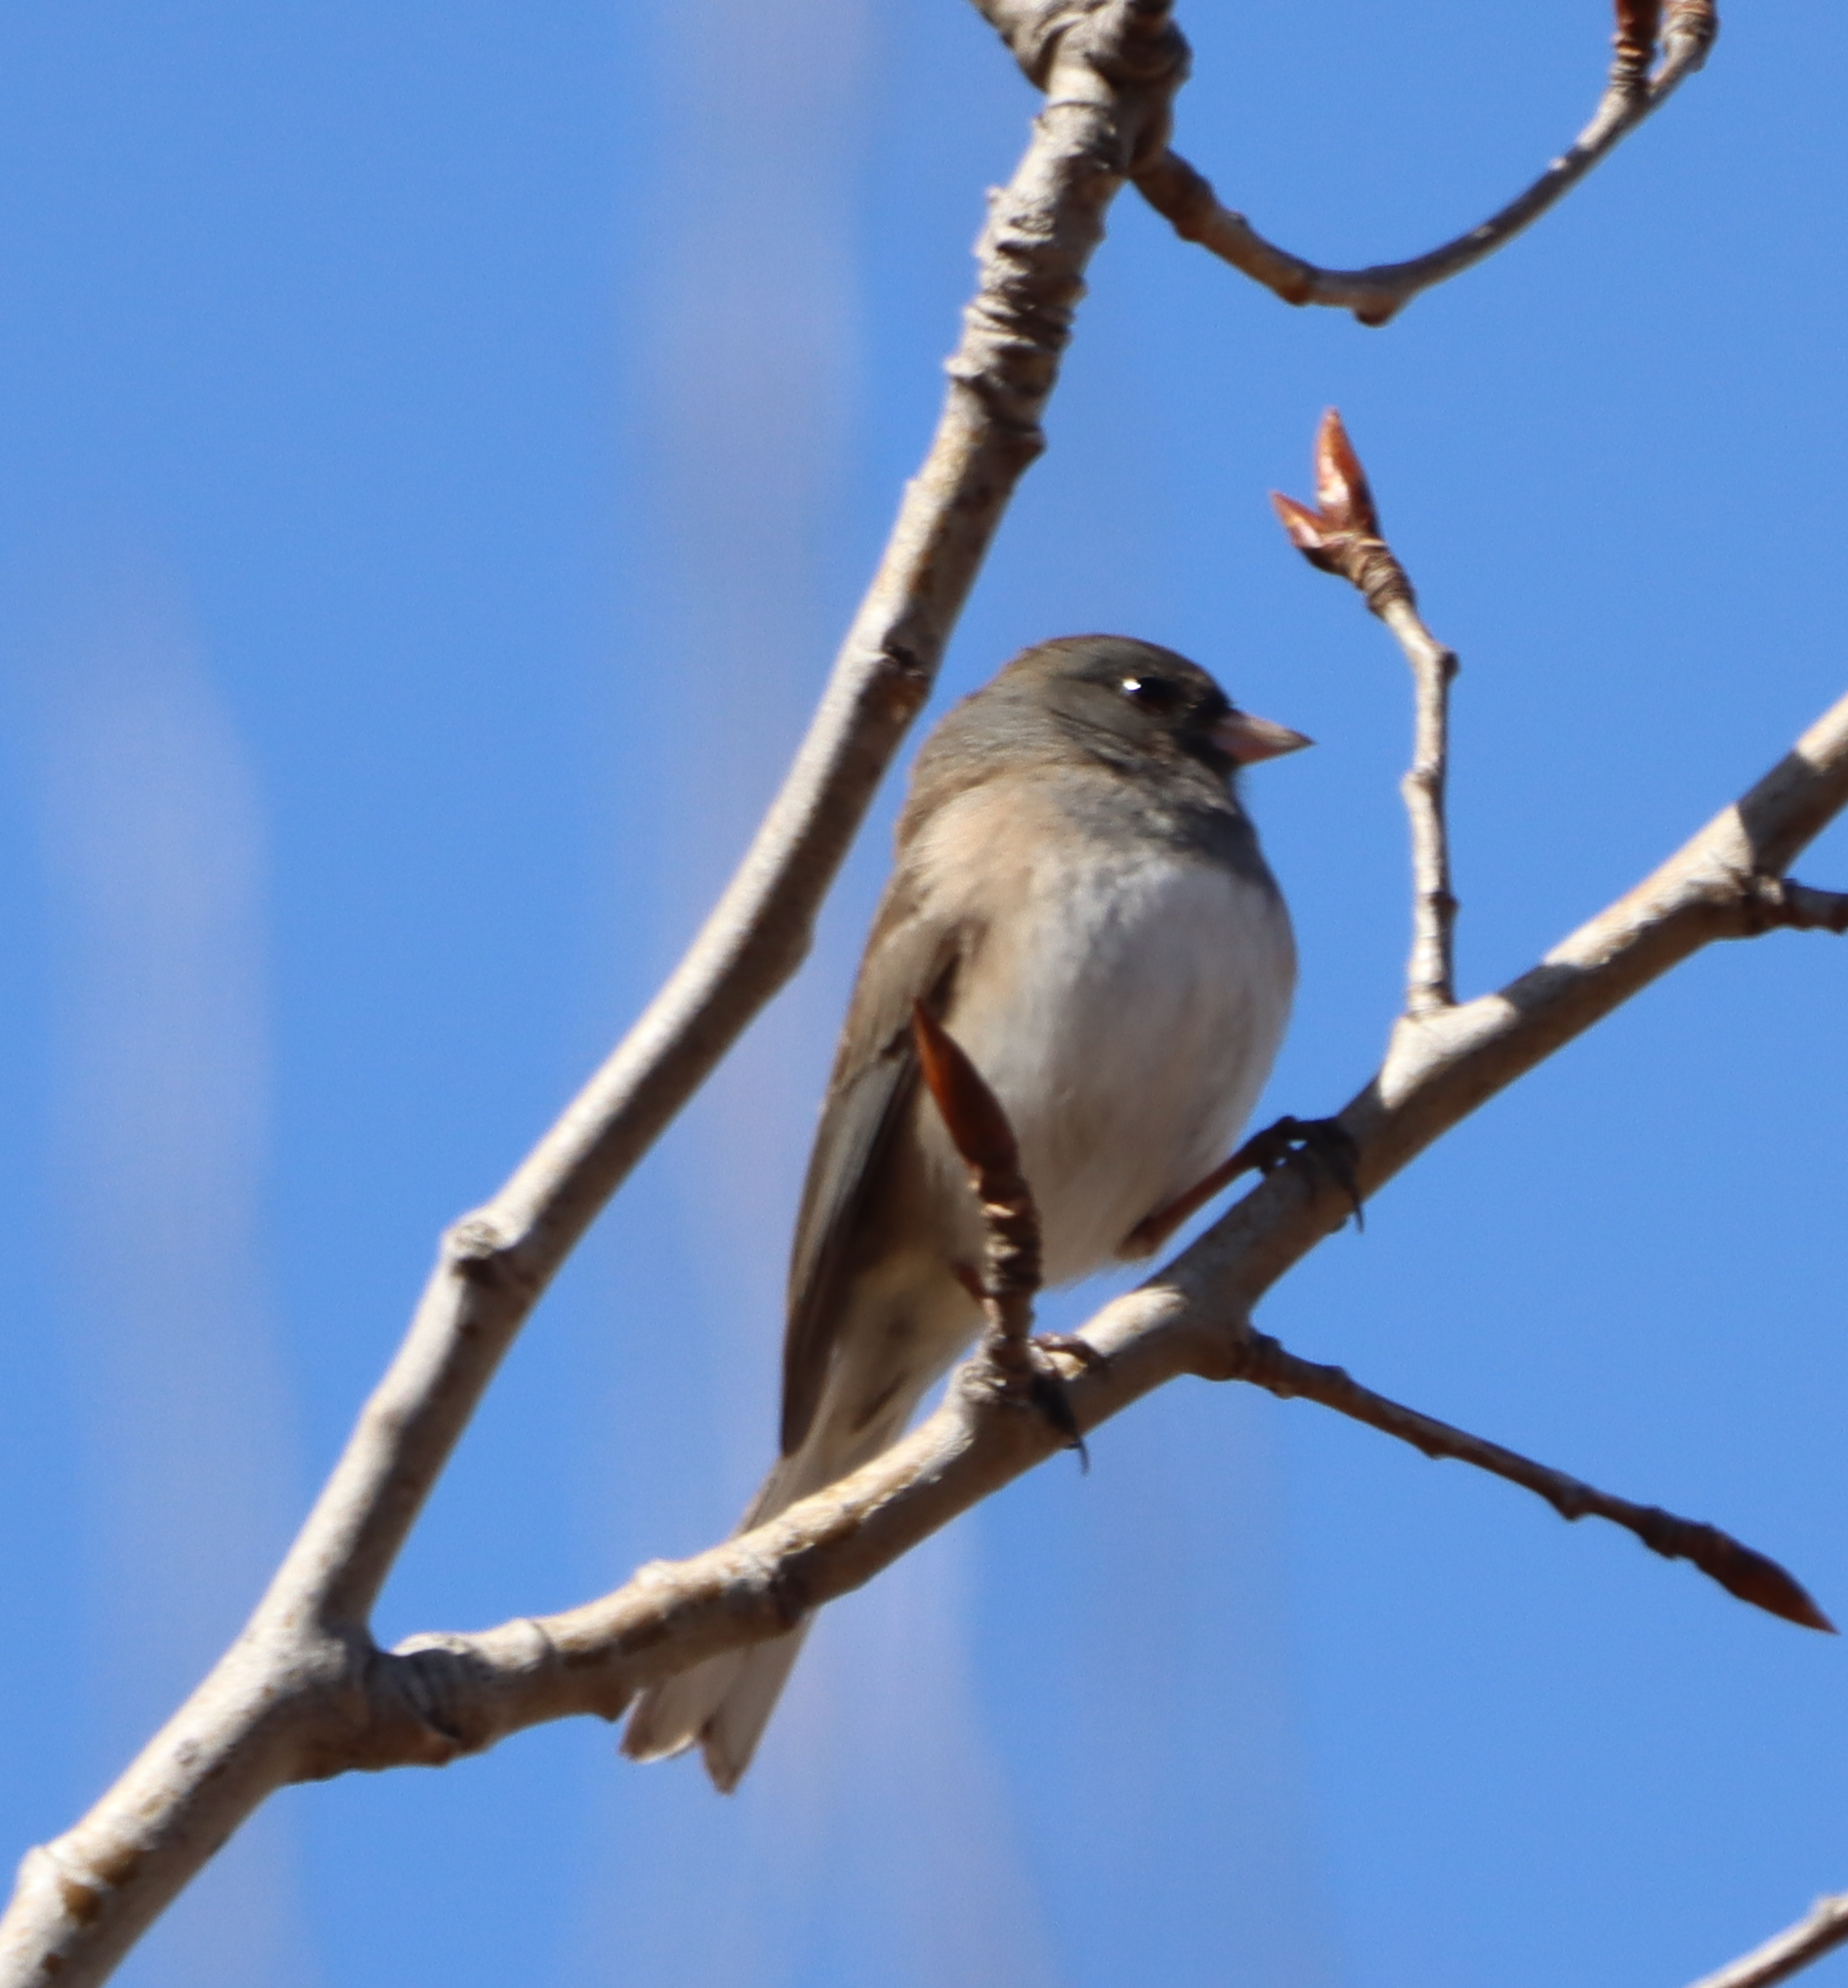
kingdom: Animalia
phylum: Chordata
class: Aves
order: Passeriformes
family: Passerellidae
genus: Junco
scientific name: Junco hyemalis
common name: Dark-eyed junco
